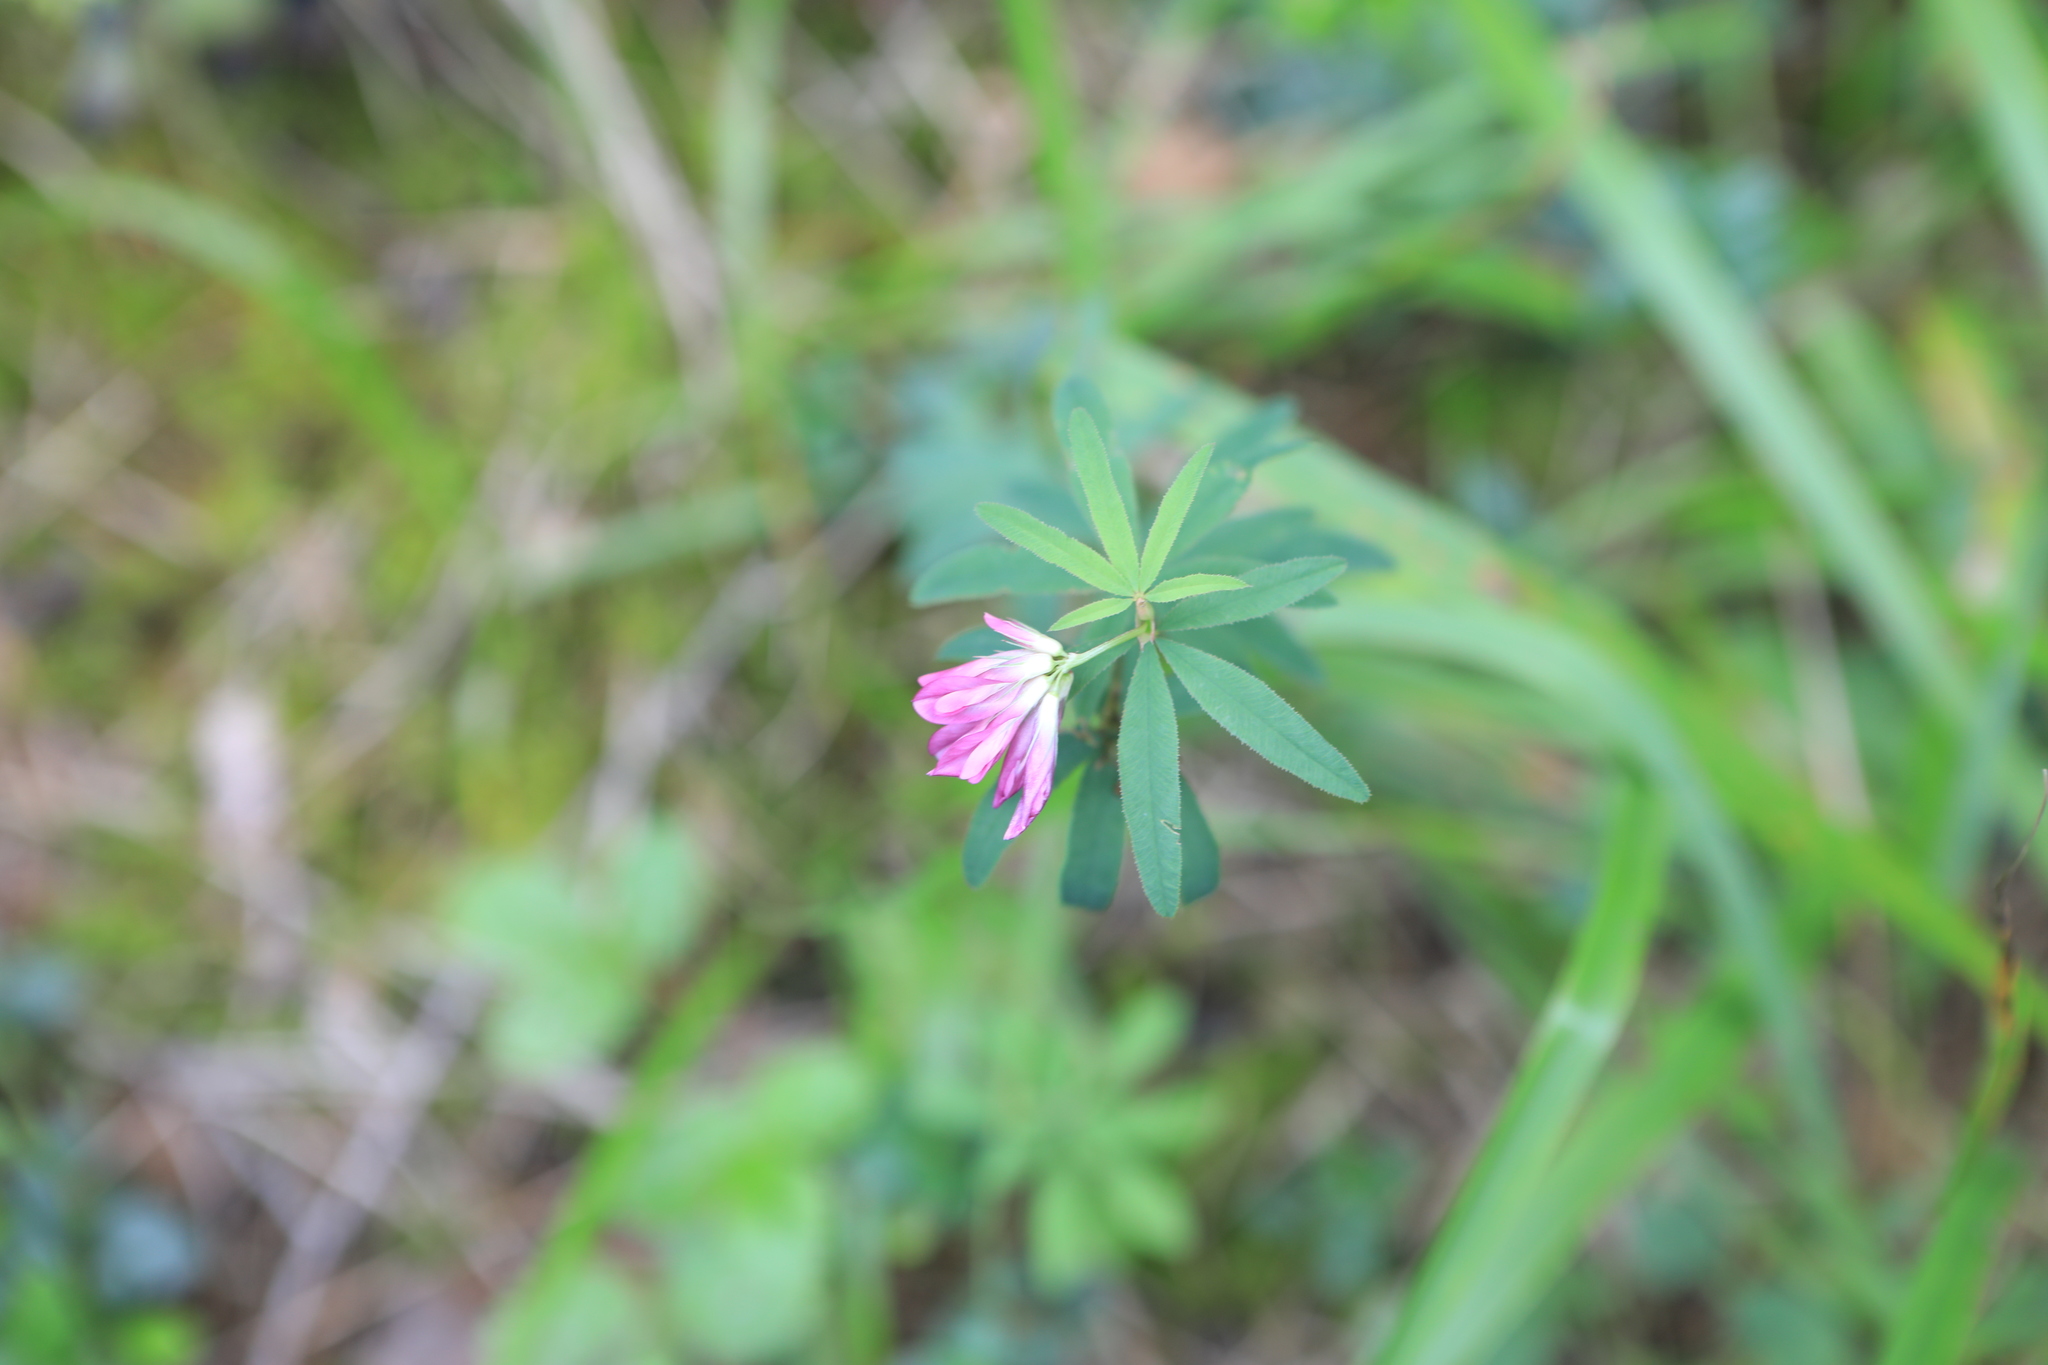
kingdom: Plantae
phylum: Tracheophyta
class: Magnoliopsida
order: Fabales
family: Fabaceae
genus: Trifolium
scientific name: Trifolium lupinaster
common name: Lupine clover
